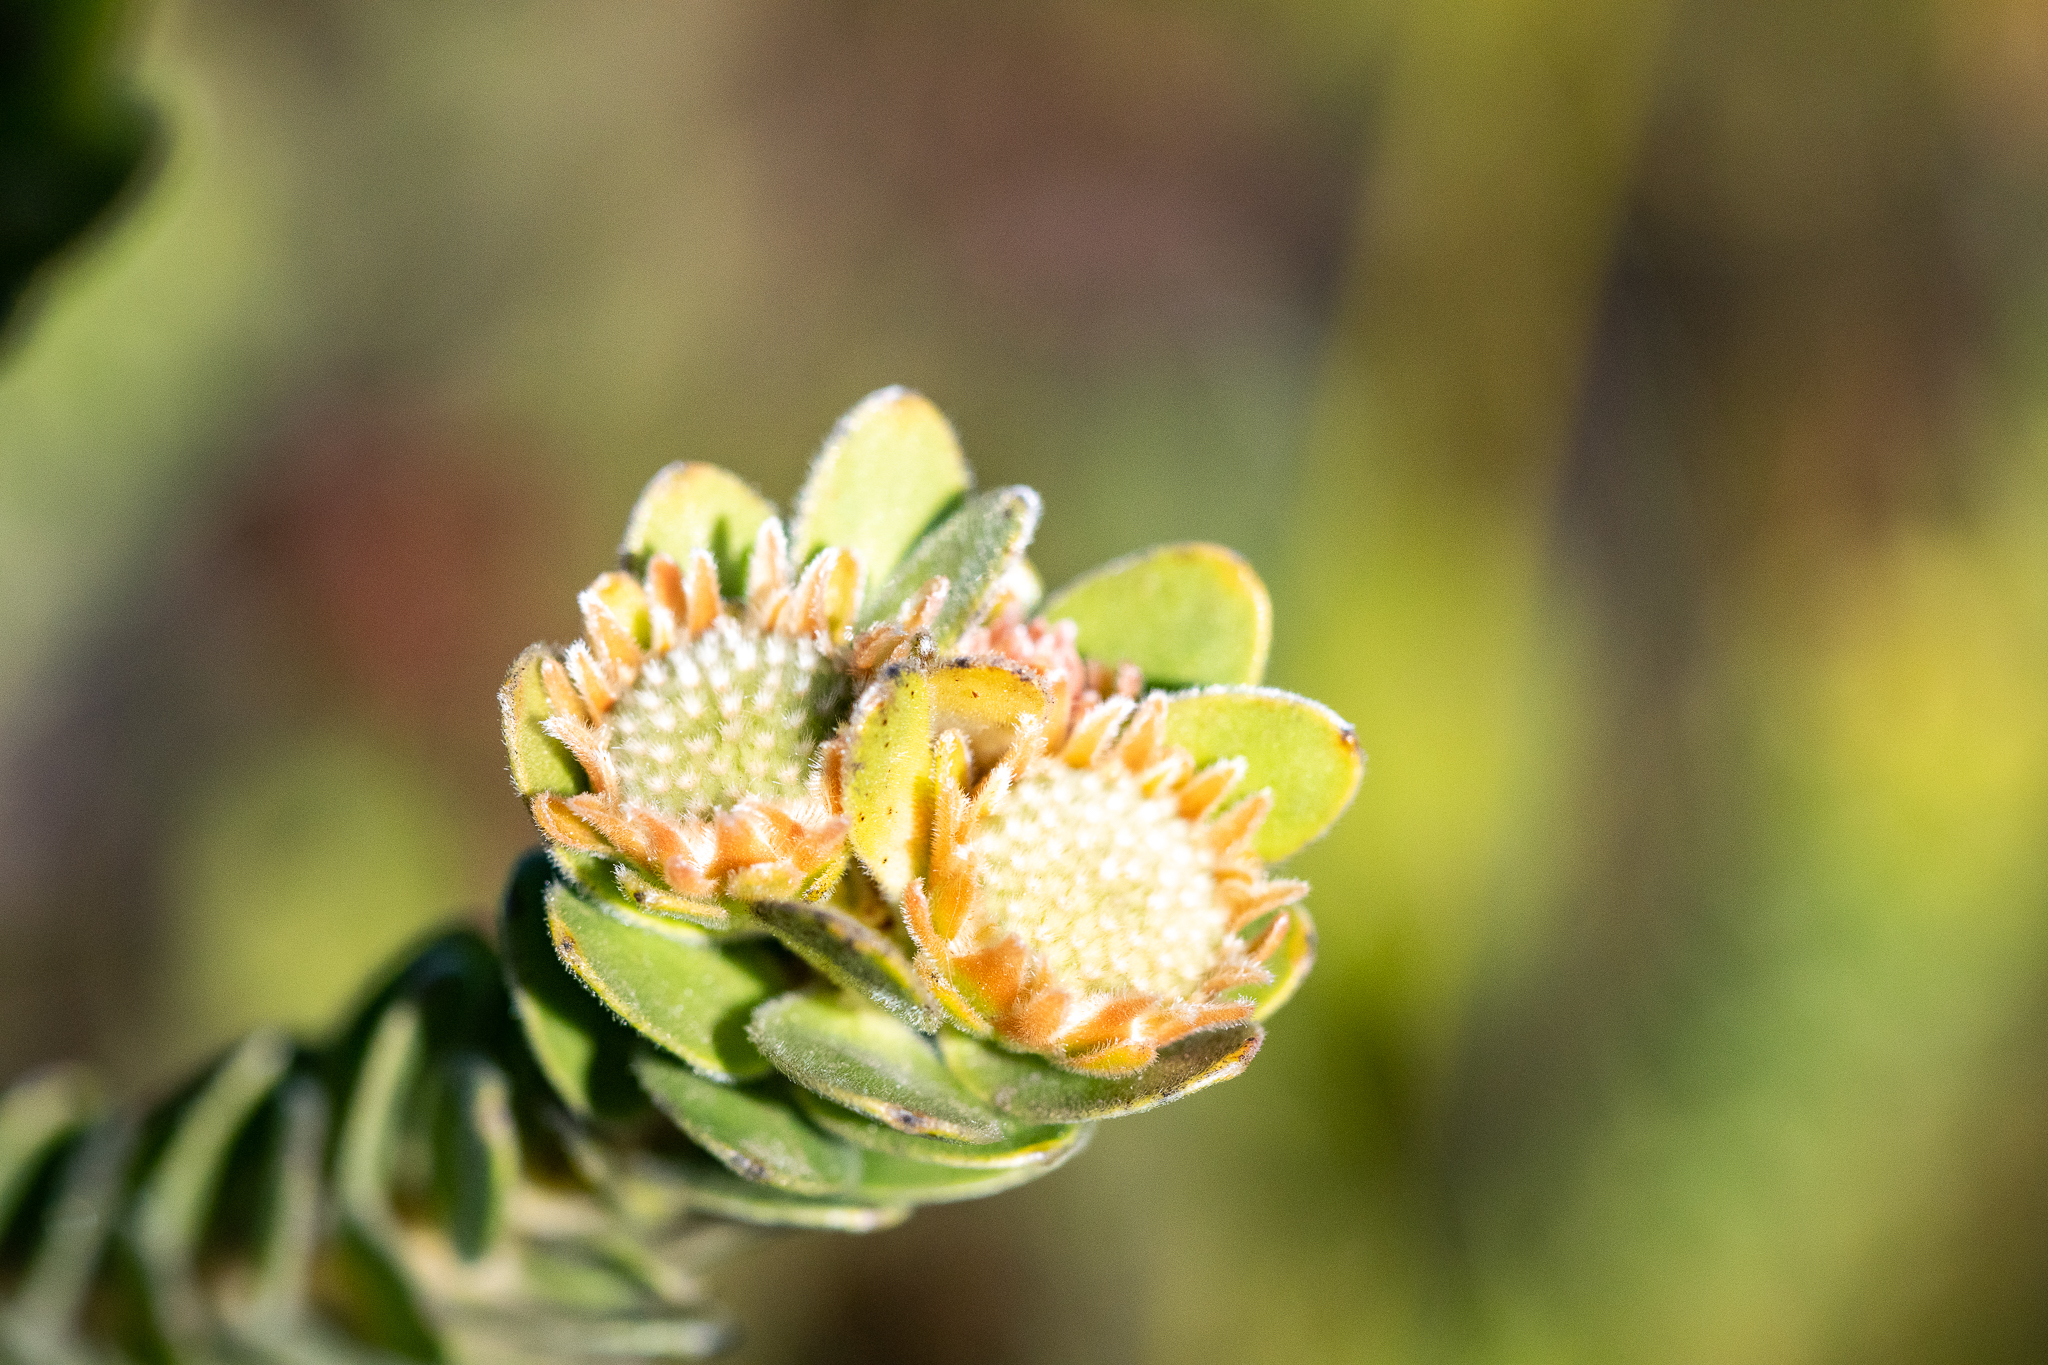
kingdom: Plantae
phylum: Tracheophyta
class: Magnoliopsida
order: Proteales
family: Proteaceae
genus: Diastella
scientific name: Diastella thymelaeoides
